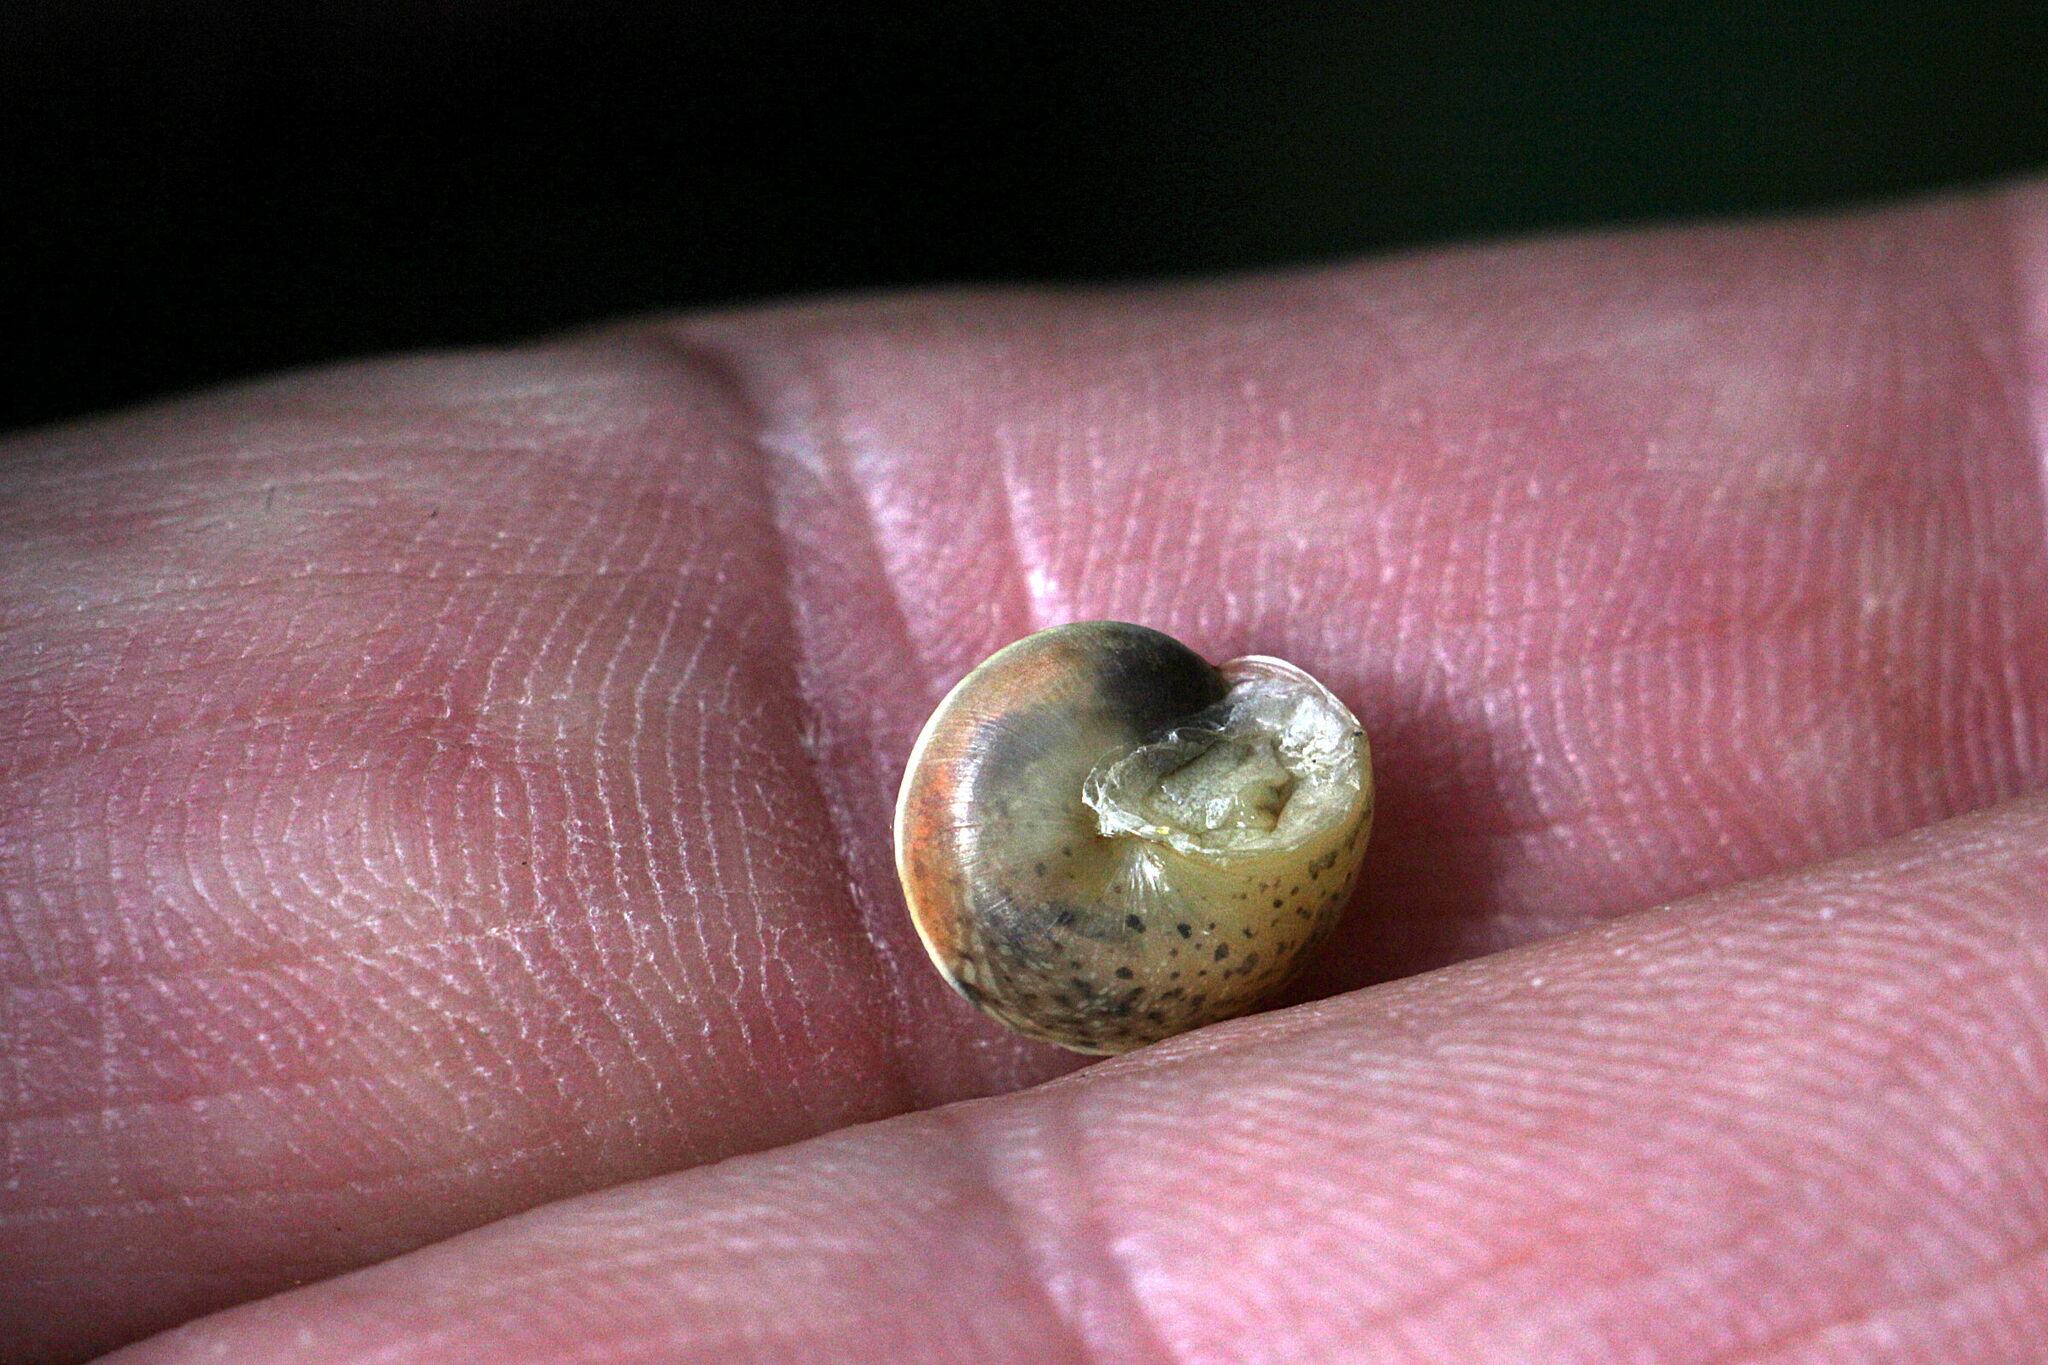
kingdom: Animalia
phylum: Mollusca
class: Gastropoda
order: Stylommatophora
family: Hygromiidae
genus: Hygromia
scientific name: Hygromia cinctella
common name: Girdled snail
